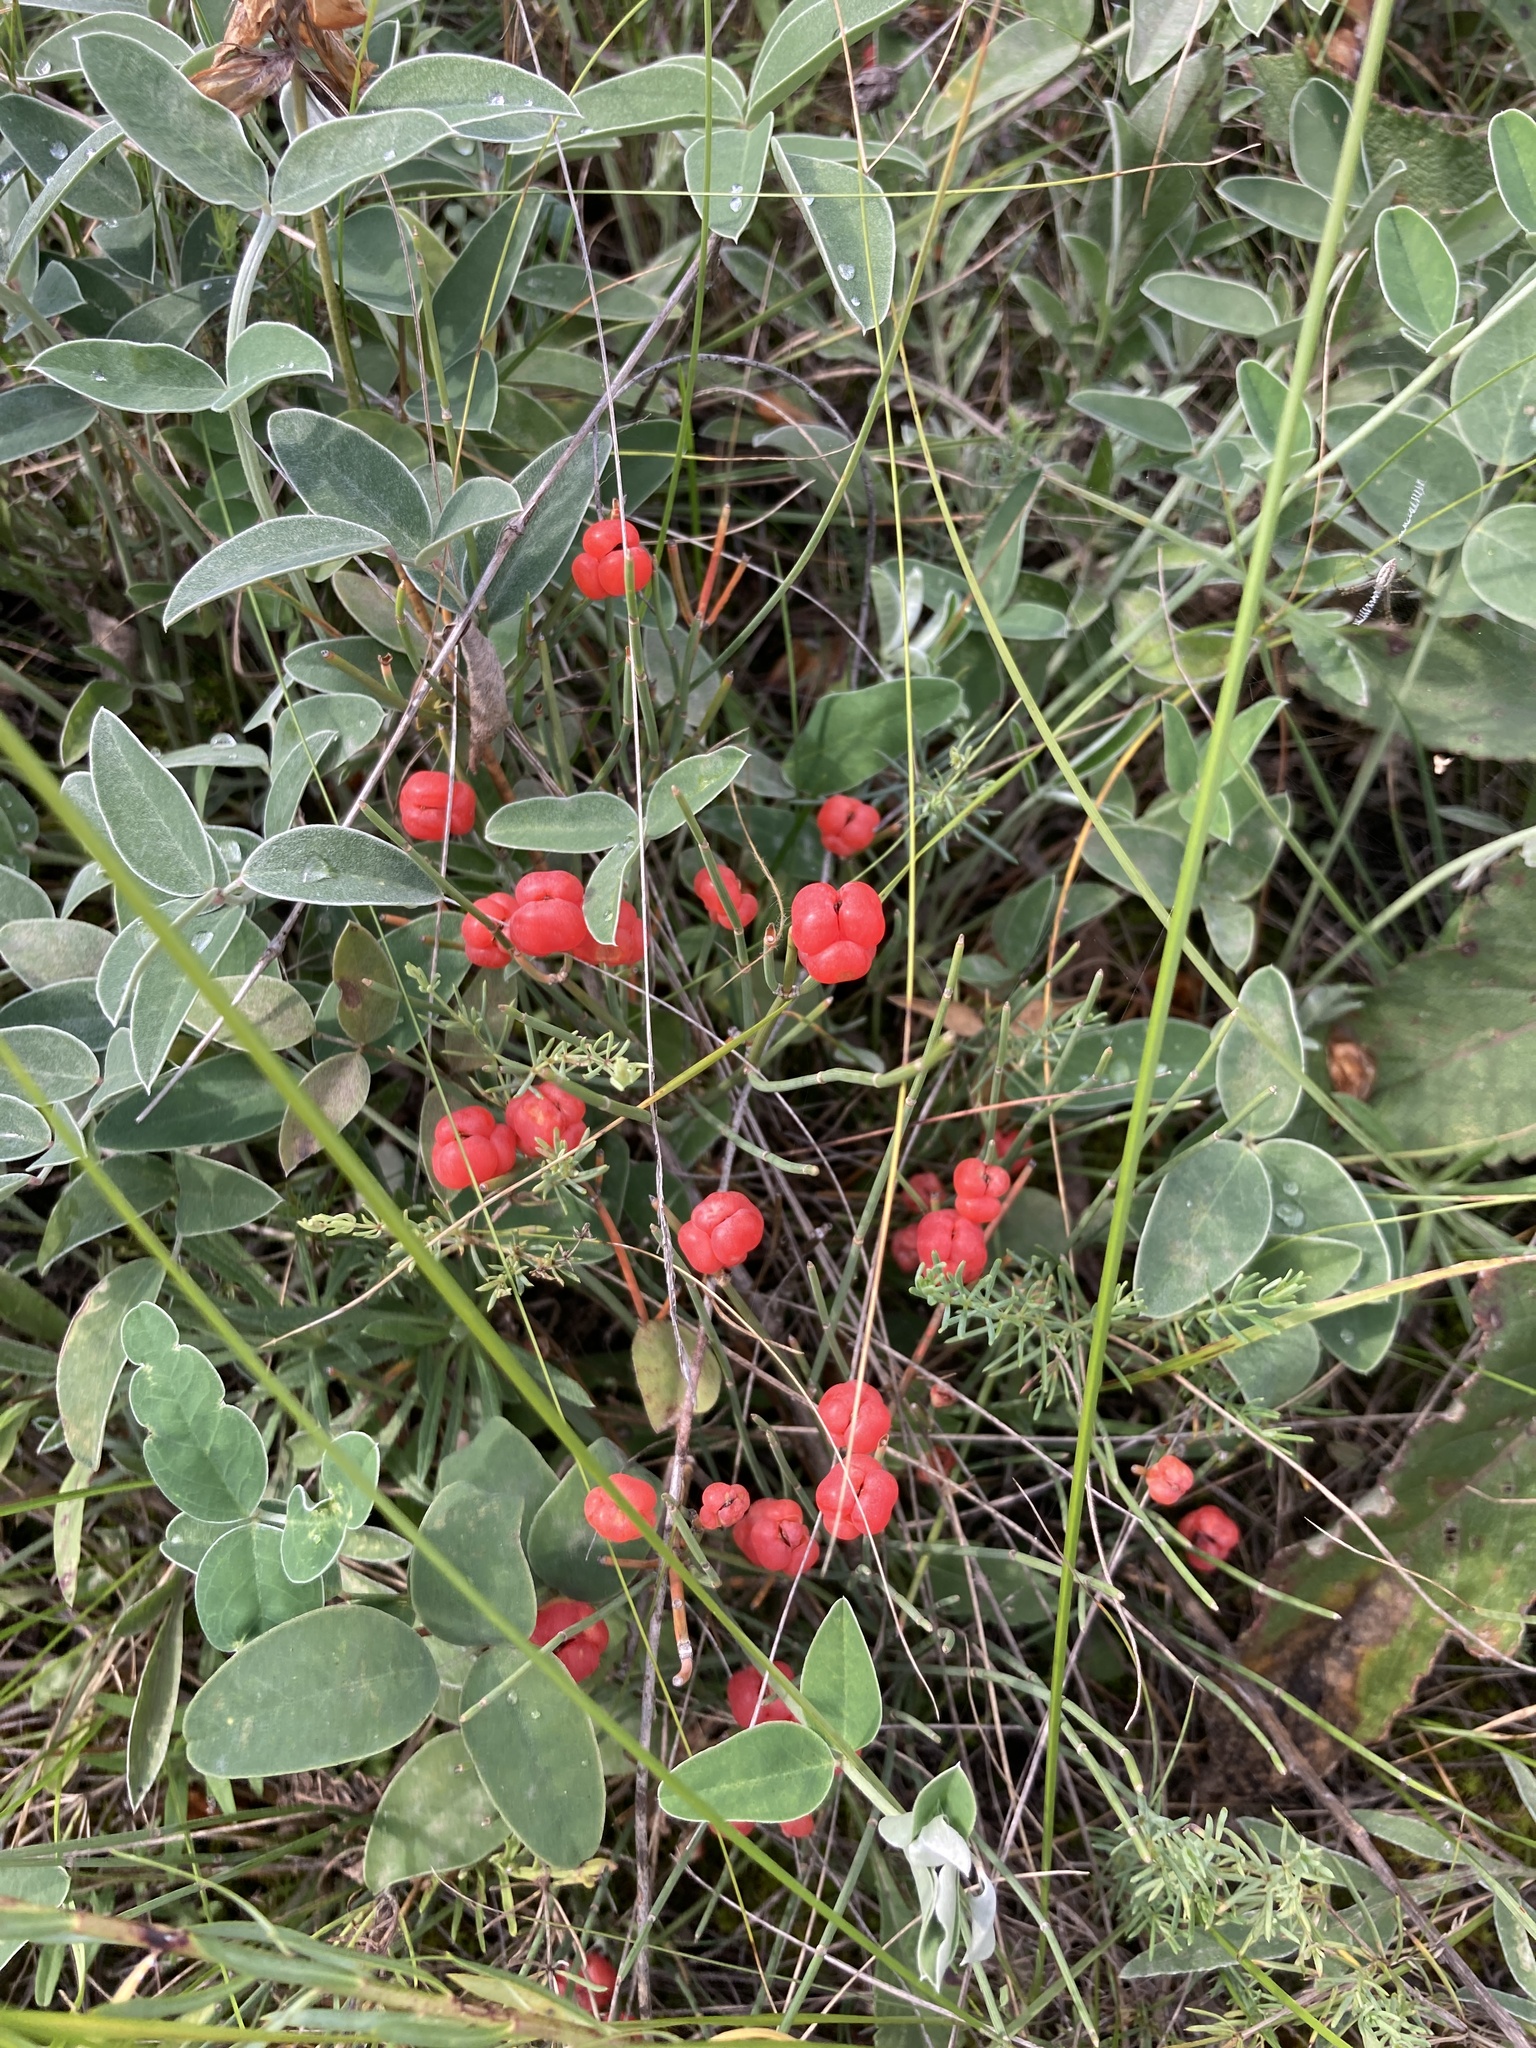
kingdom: Plantae
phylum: Tracheophyta
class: Gnetopsida
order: Ephedrales
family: Ephedraceae
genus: Ephedra
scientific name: Ephedra distachya
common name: Sea grape
